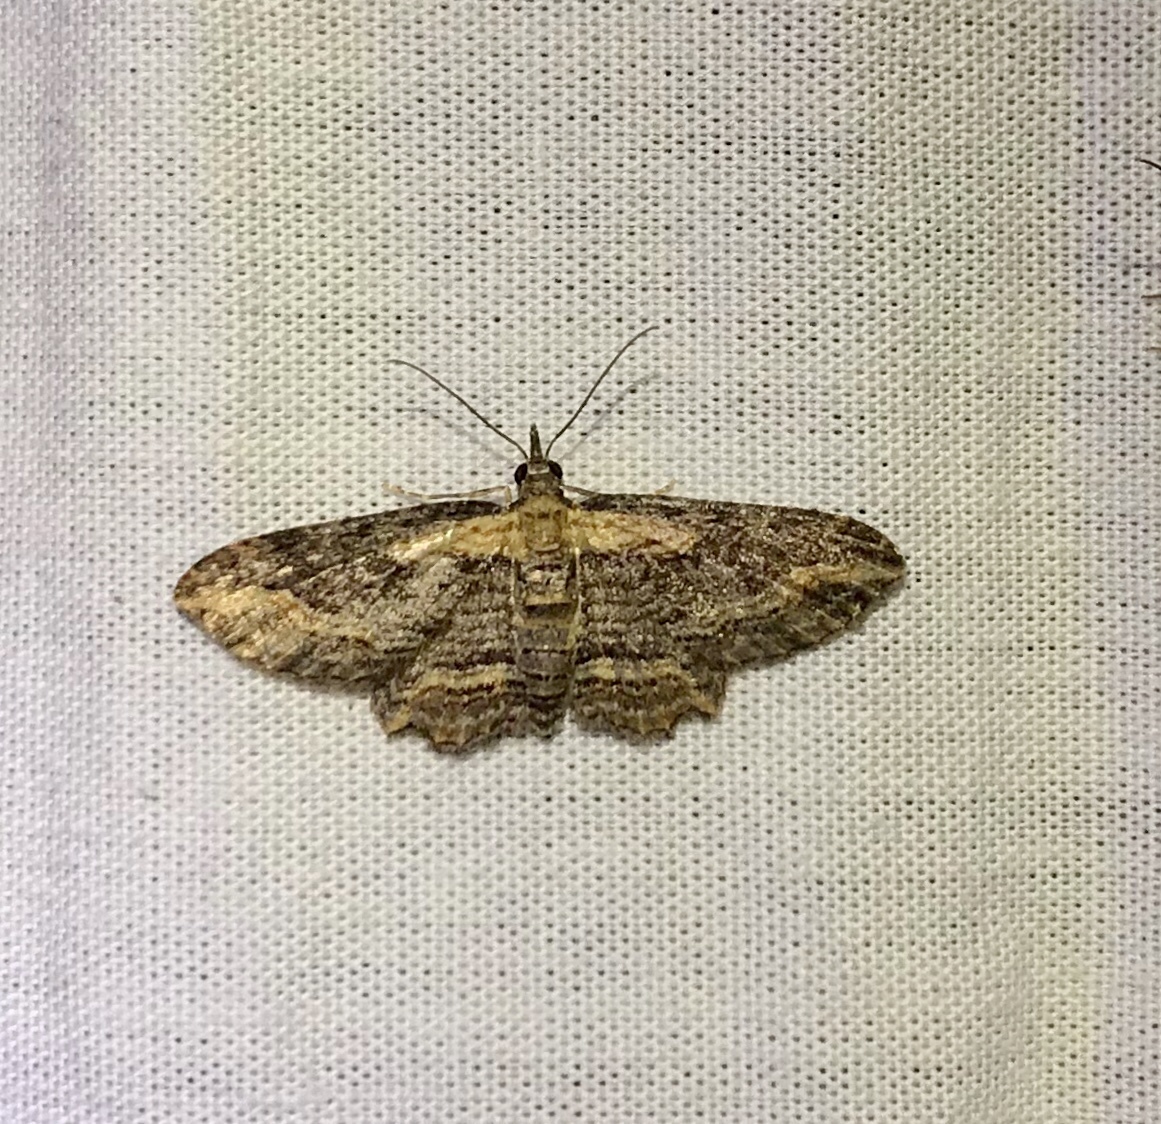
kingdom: Animalia
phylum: Arthropoda
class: Insecta
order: Lepidoptera
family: Geometridae
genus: Chloroclystis
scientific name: Chloroclystis filata
